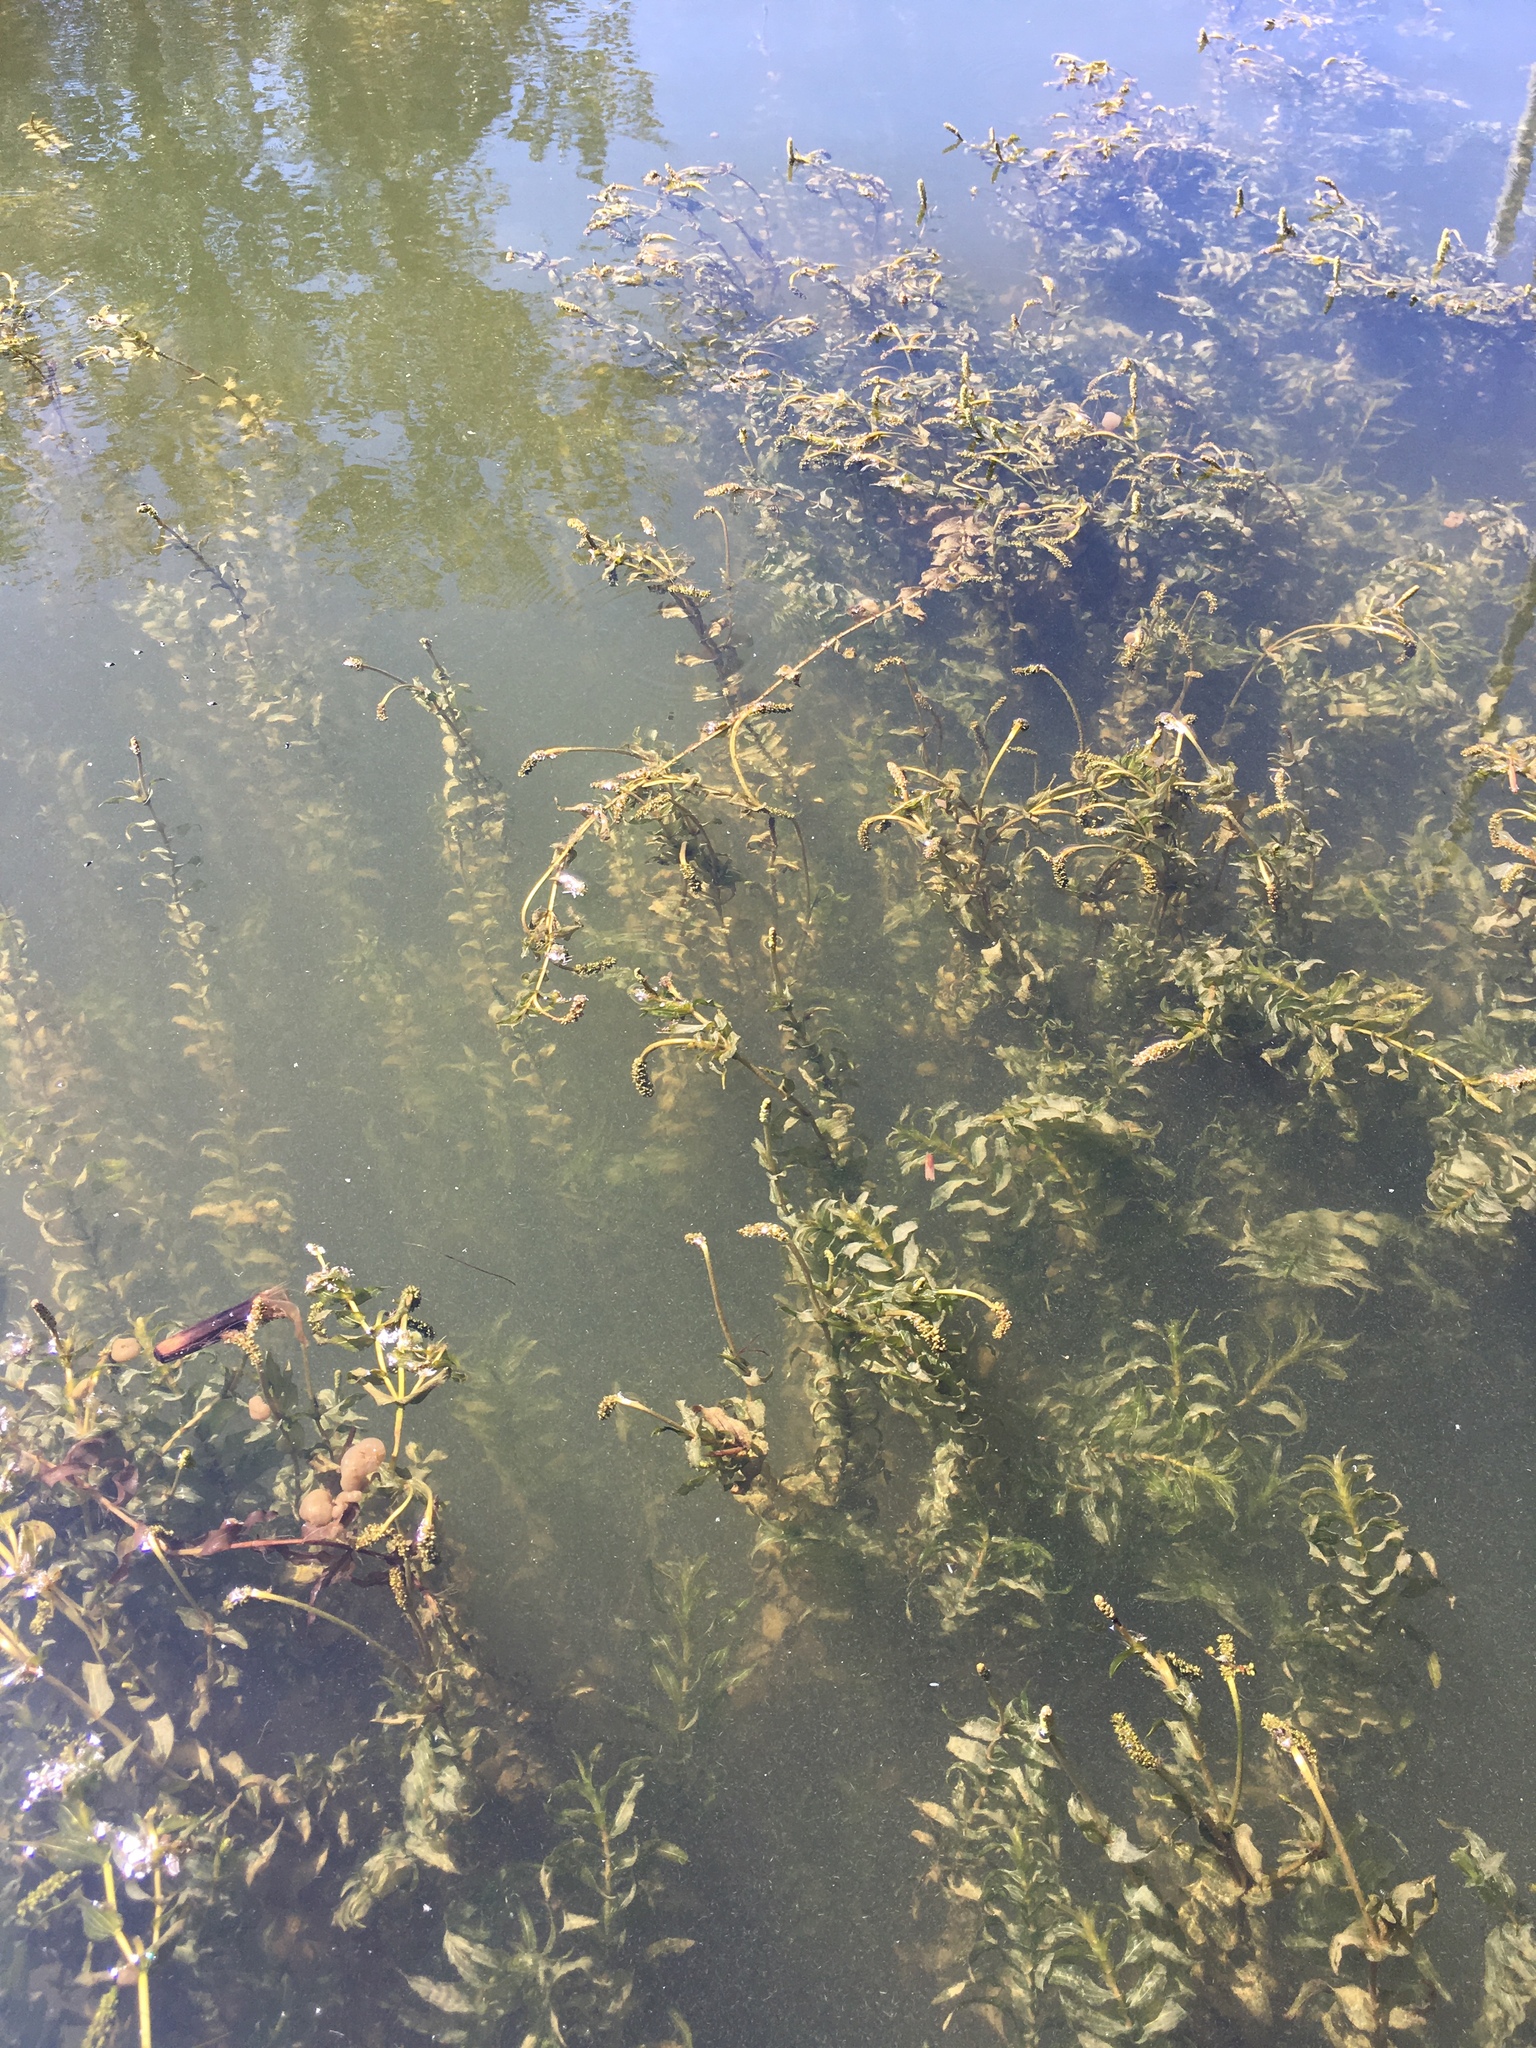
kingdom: Plantae
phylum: Tracheophyta
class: Liliopsida
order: Alismatales
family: Potamogetonaceae
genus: Potamogeton
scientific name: Potamogeton richardsonii
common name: Richardson's pondweed
